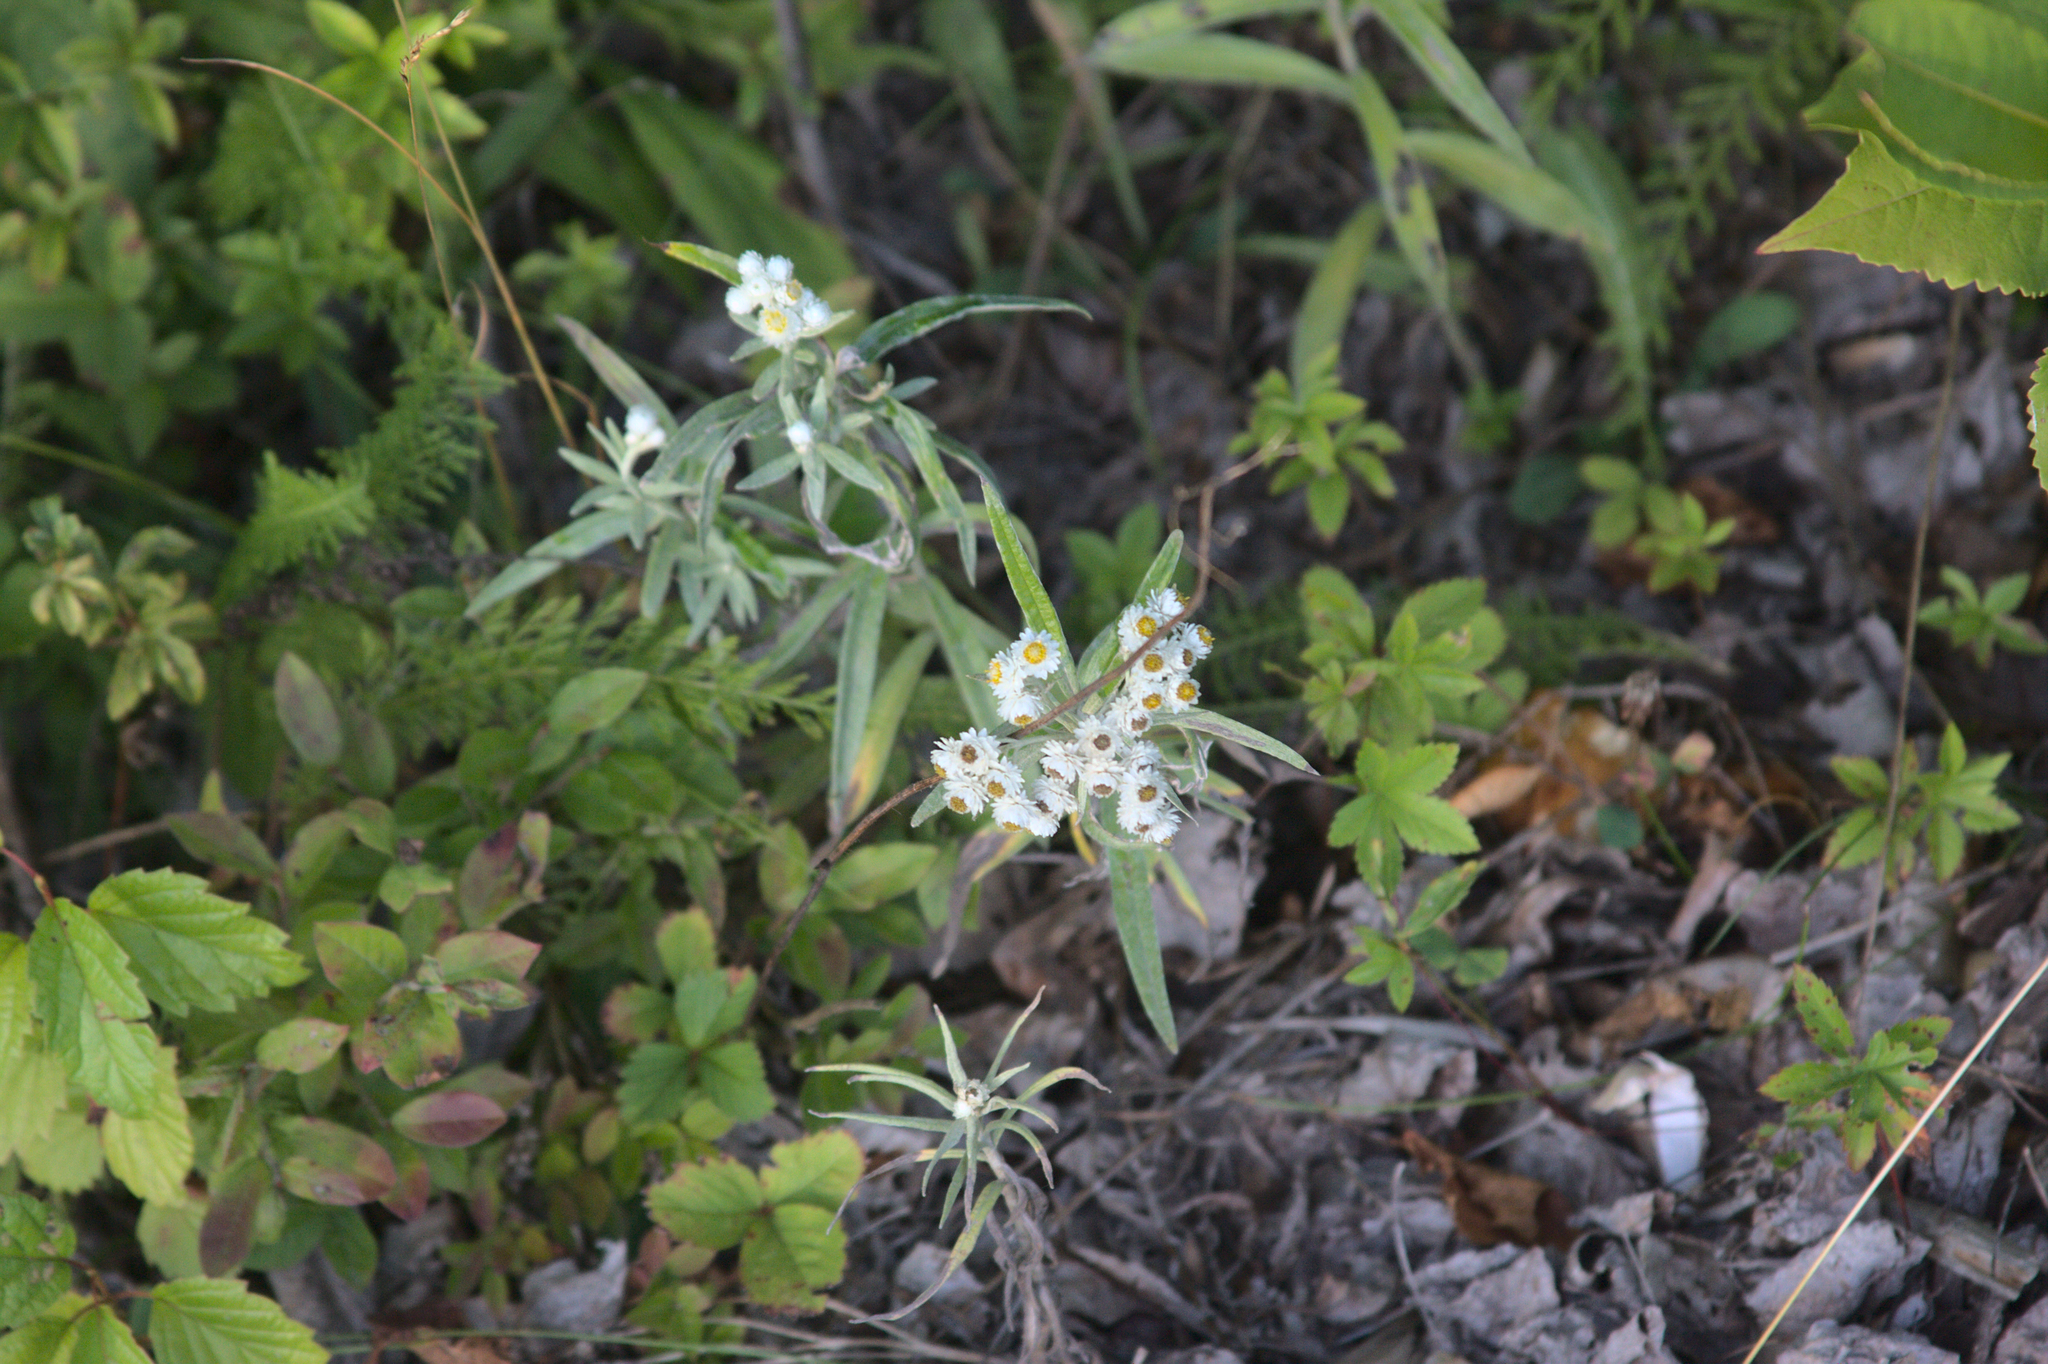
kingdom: Plantae
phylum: Tracheophyta
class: Magnoliopsida
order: Asterales
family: Asteraceae
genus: Anaphalis
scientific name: Anaphalis margaritacea
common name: Pearly everlasting
